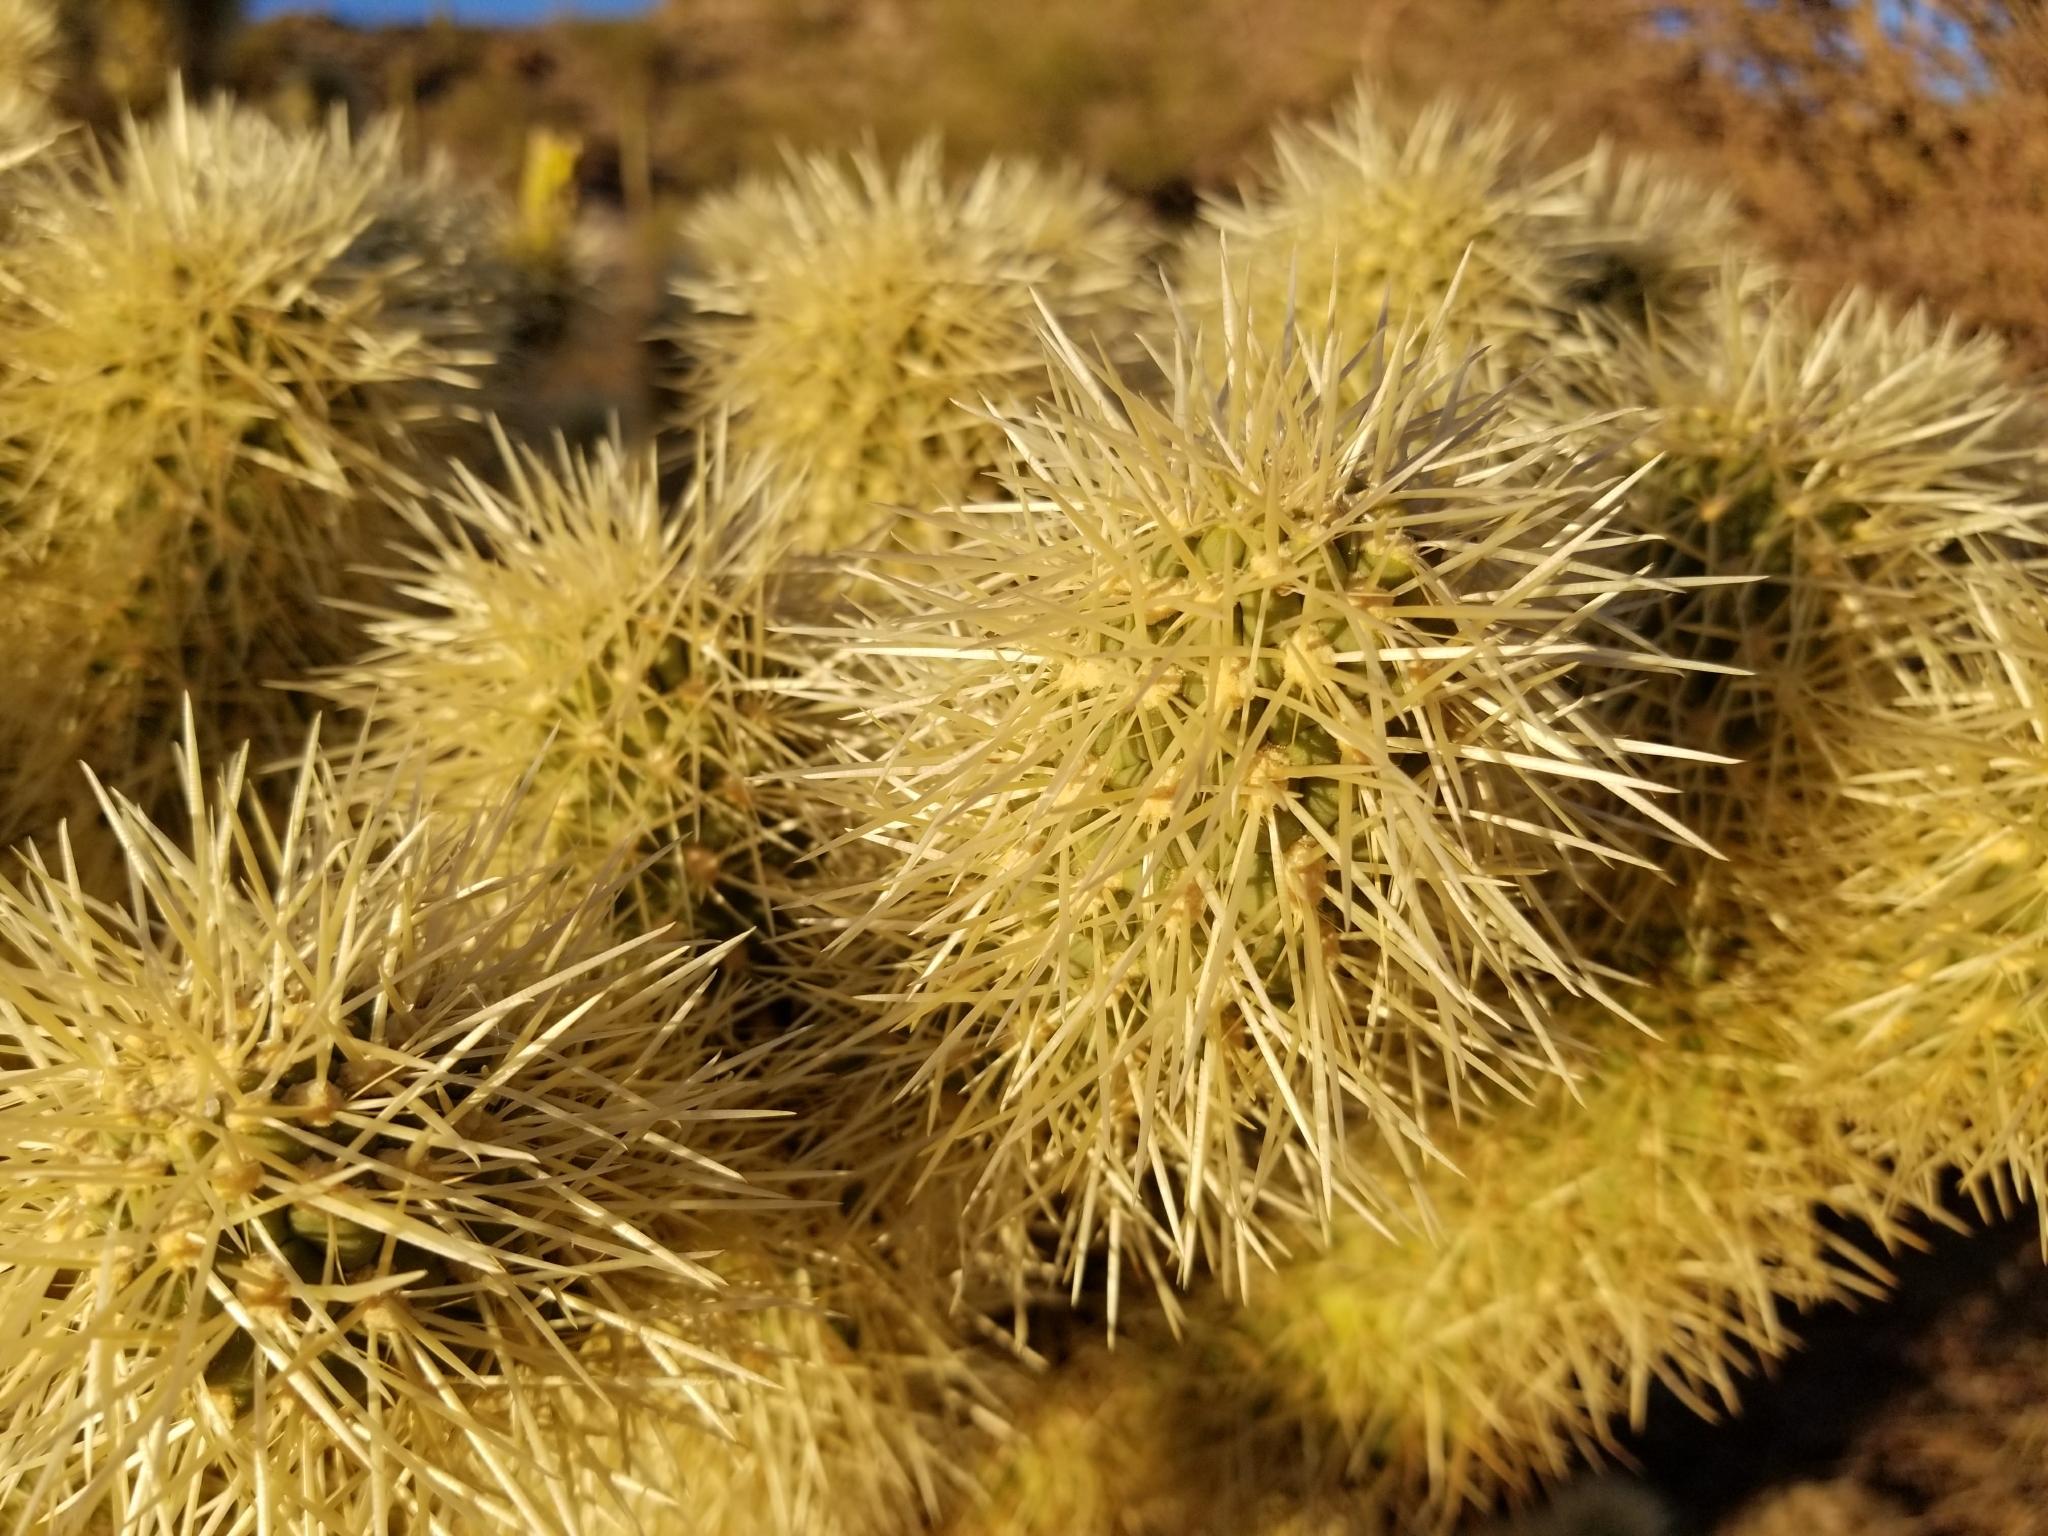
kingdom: Plantae
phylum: Tracheophyta
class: Magnoliopsida
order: Caryophyllales
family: Cactaceae
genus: Cylindropuntia
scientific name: Cylindropuntia fosbergii
